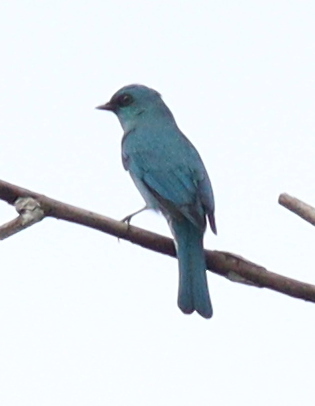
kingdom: Animalia
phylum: Chordata
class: Aves
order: Passeriformes
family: Muscicapidae
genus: Eumyias
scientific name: Eumyias thalassinus
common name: Verditer flycatcher
